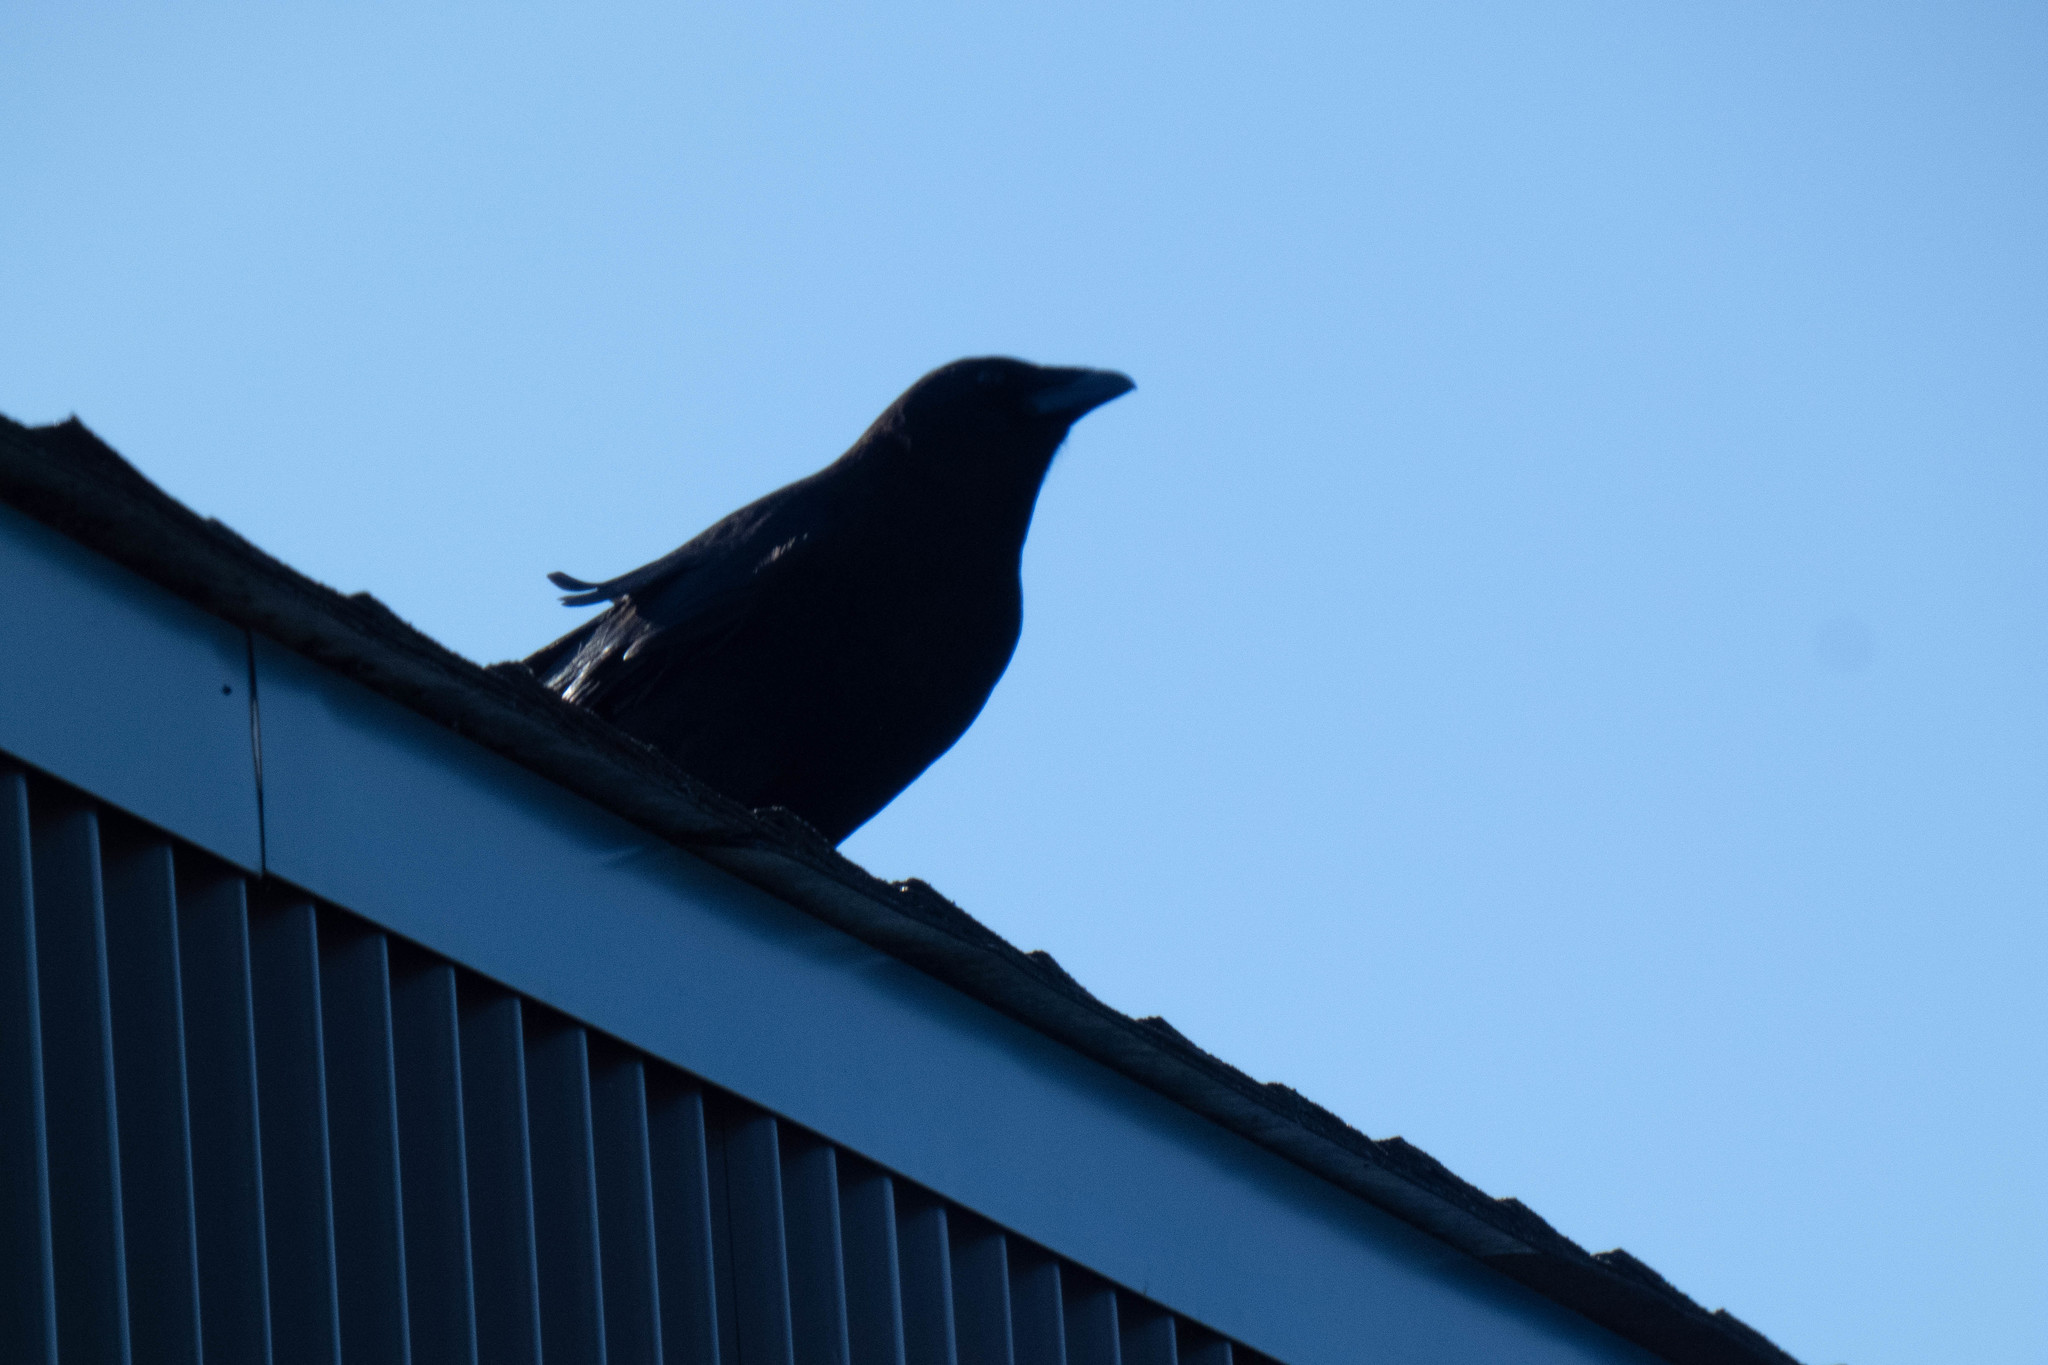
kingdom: Animalia
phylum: Chordata
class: Aves
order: Passeriformes
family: Corvidae
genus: Corvus
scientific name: Corvus brachyrhynchos
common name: American crow
